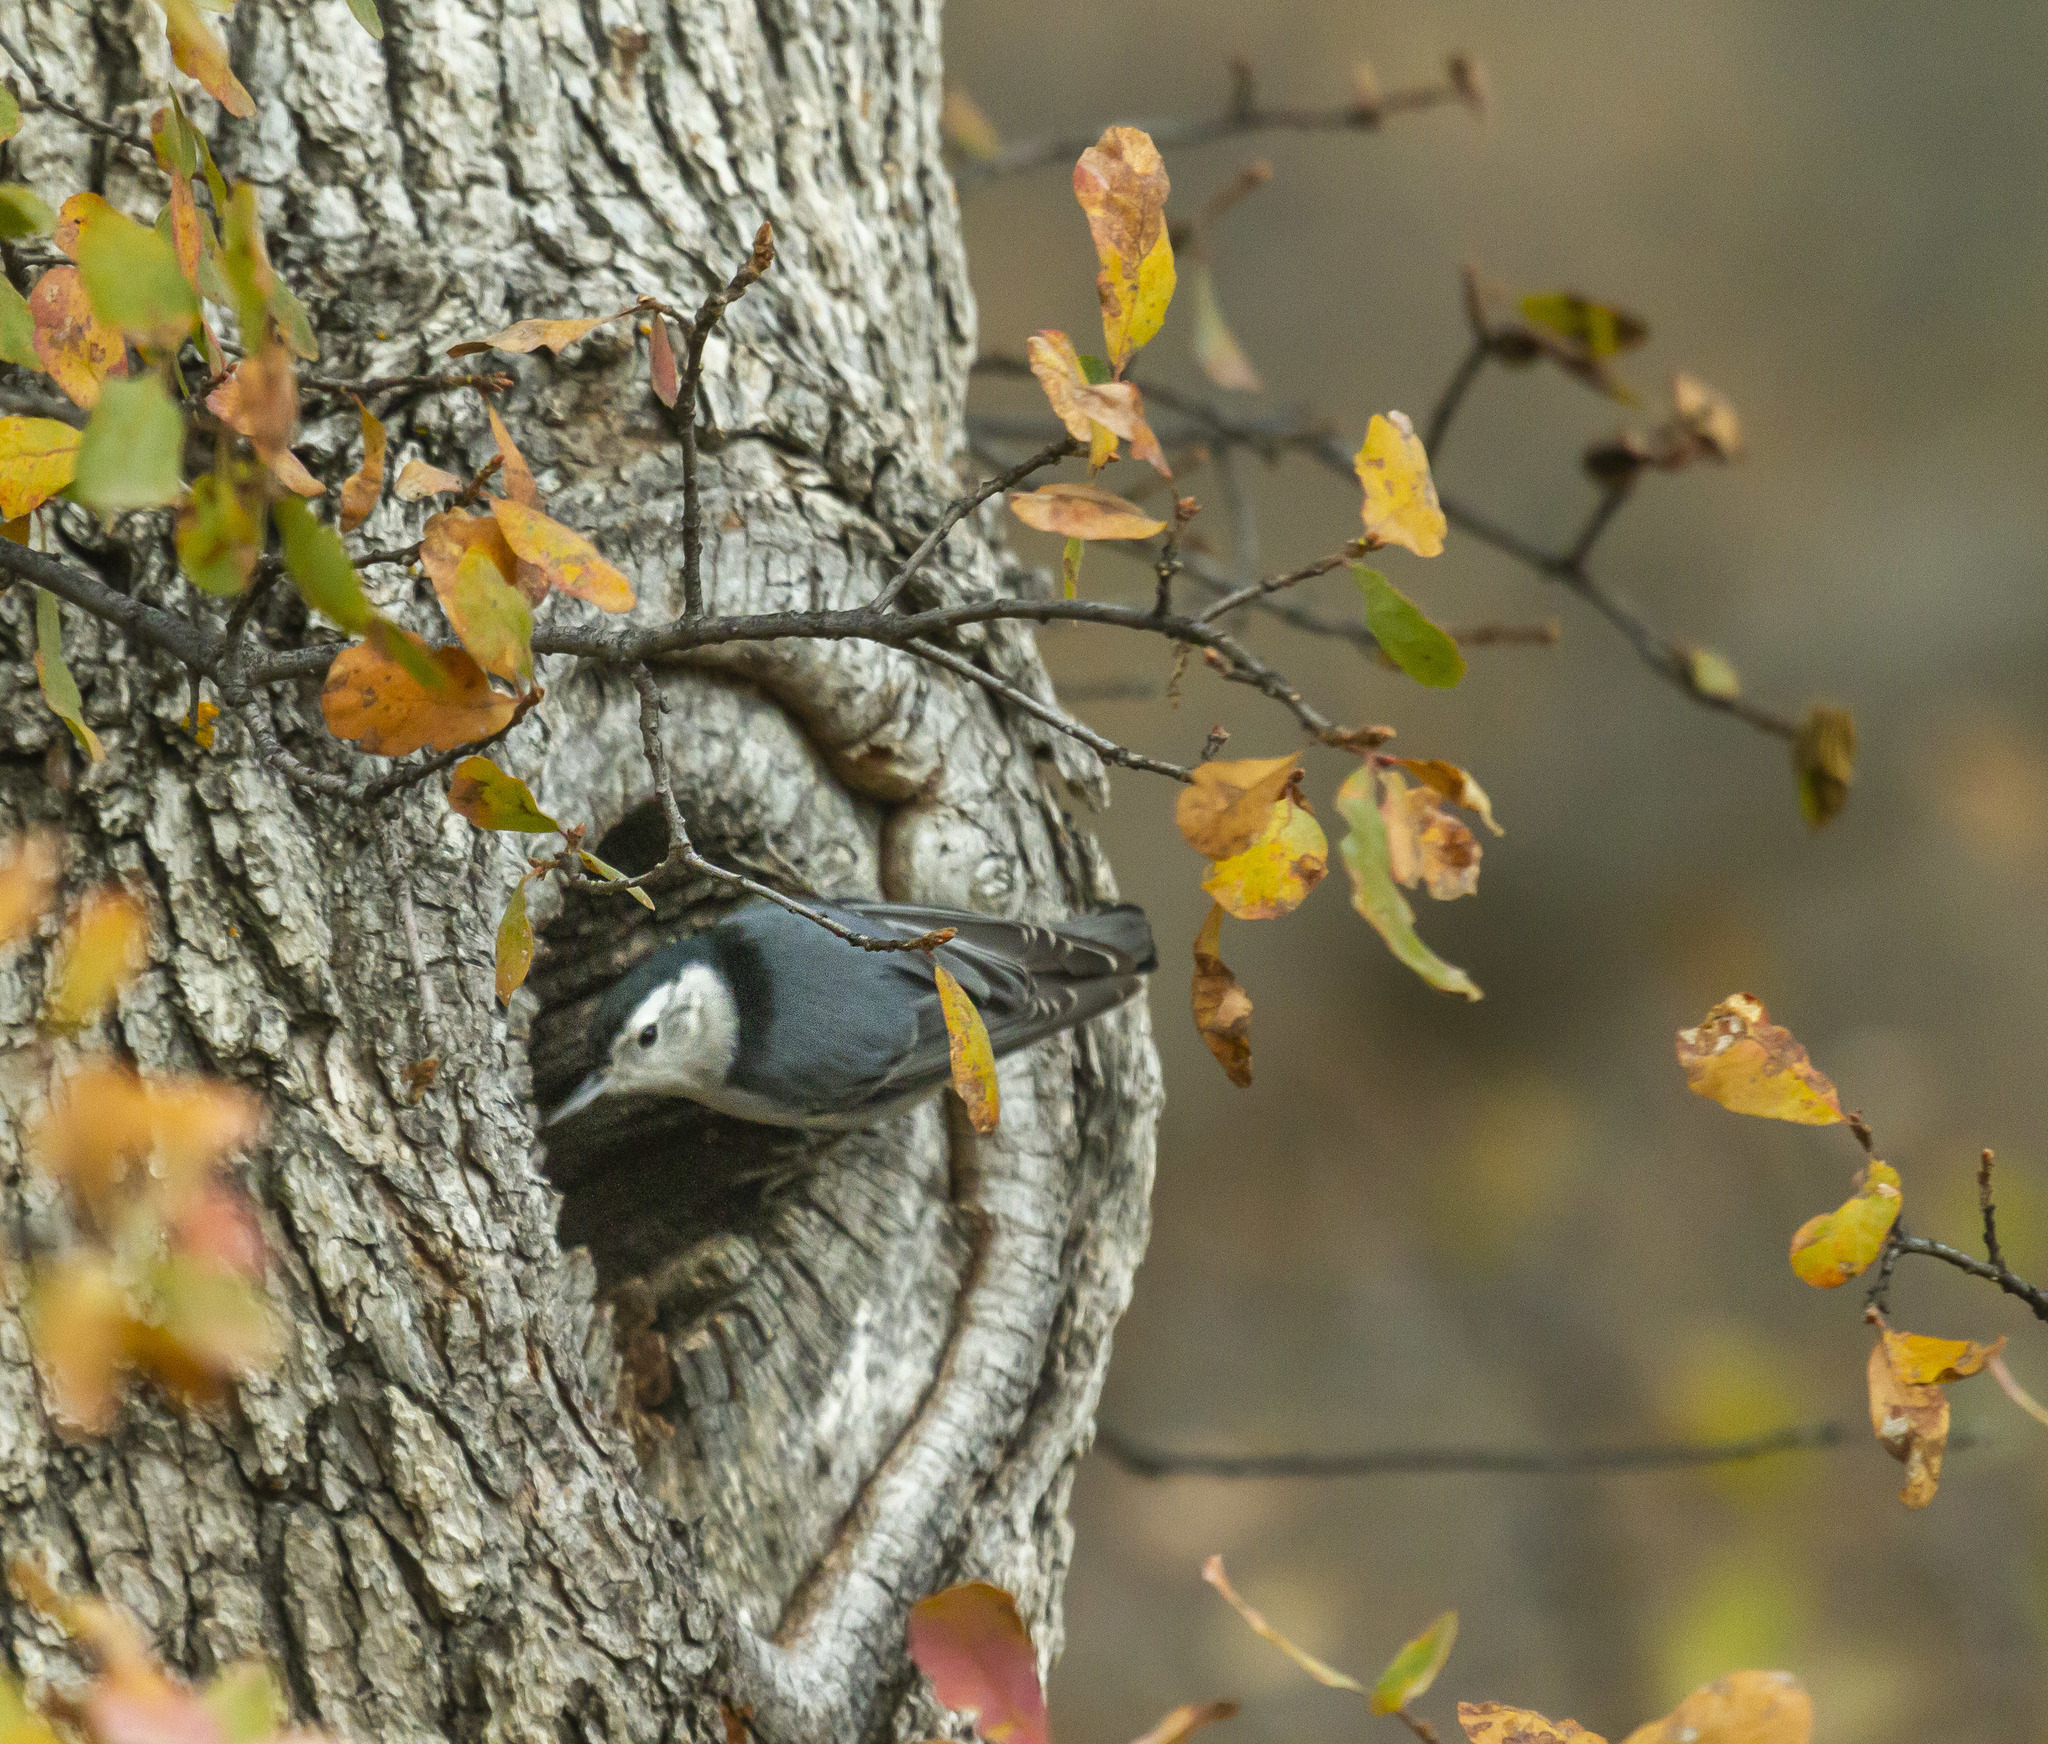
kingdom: Animalia
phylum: Chordata
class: Aves
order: Passeriformes
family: Sittidae
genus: Sitta
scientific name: Sitta carolinensis
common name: White-breasted nuthatch
